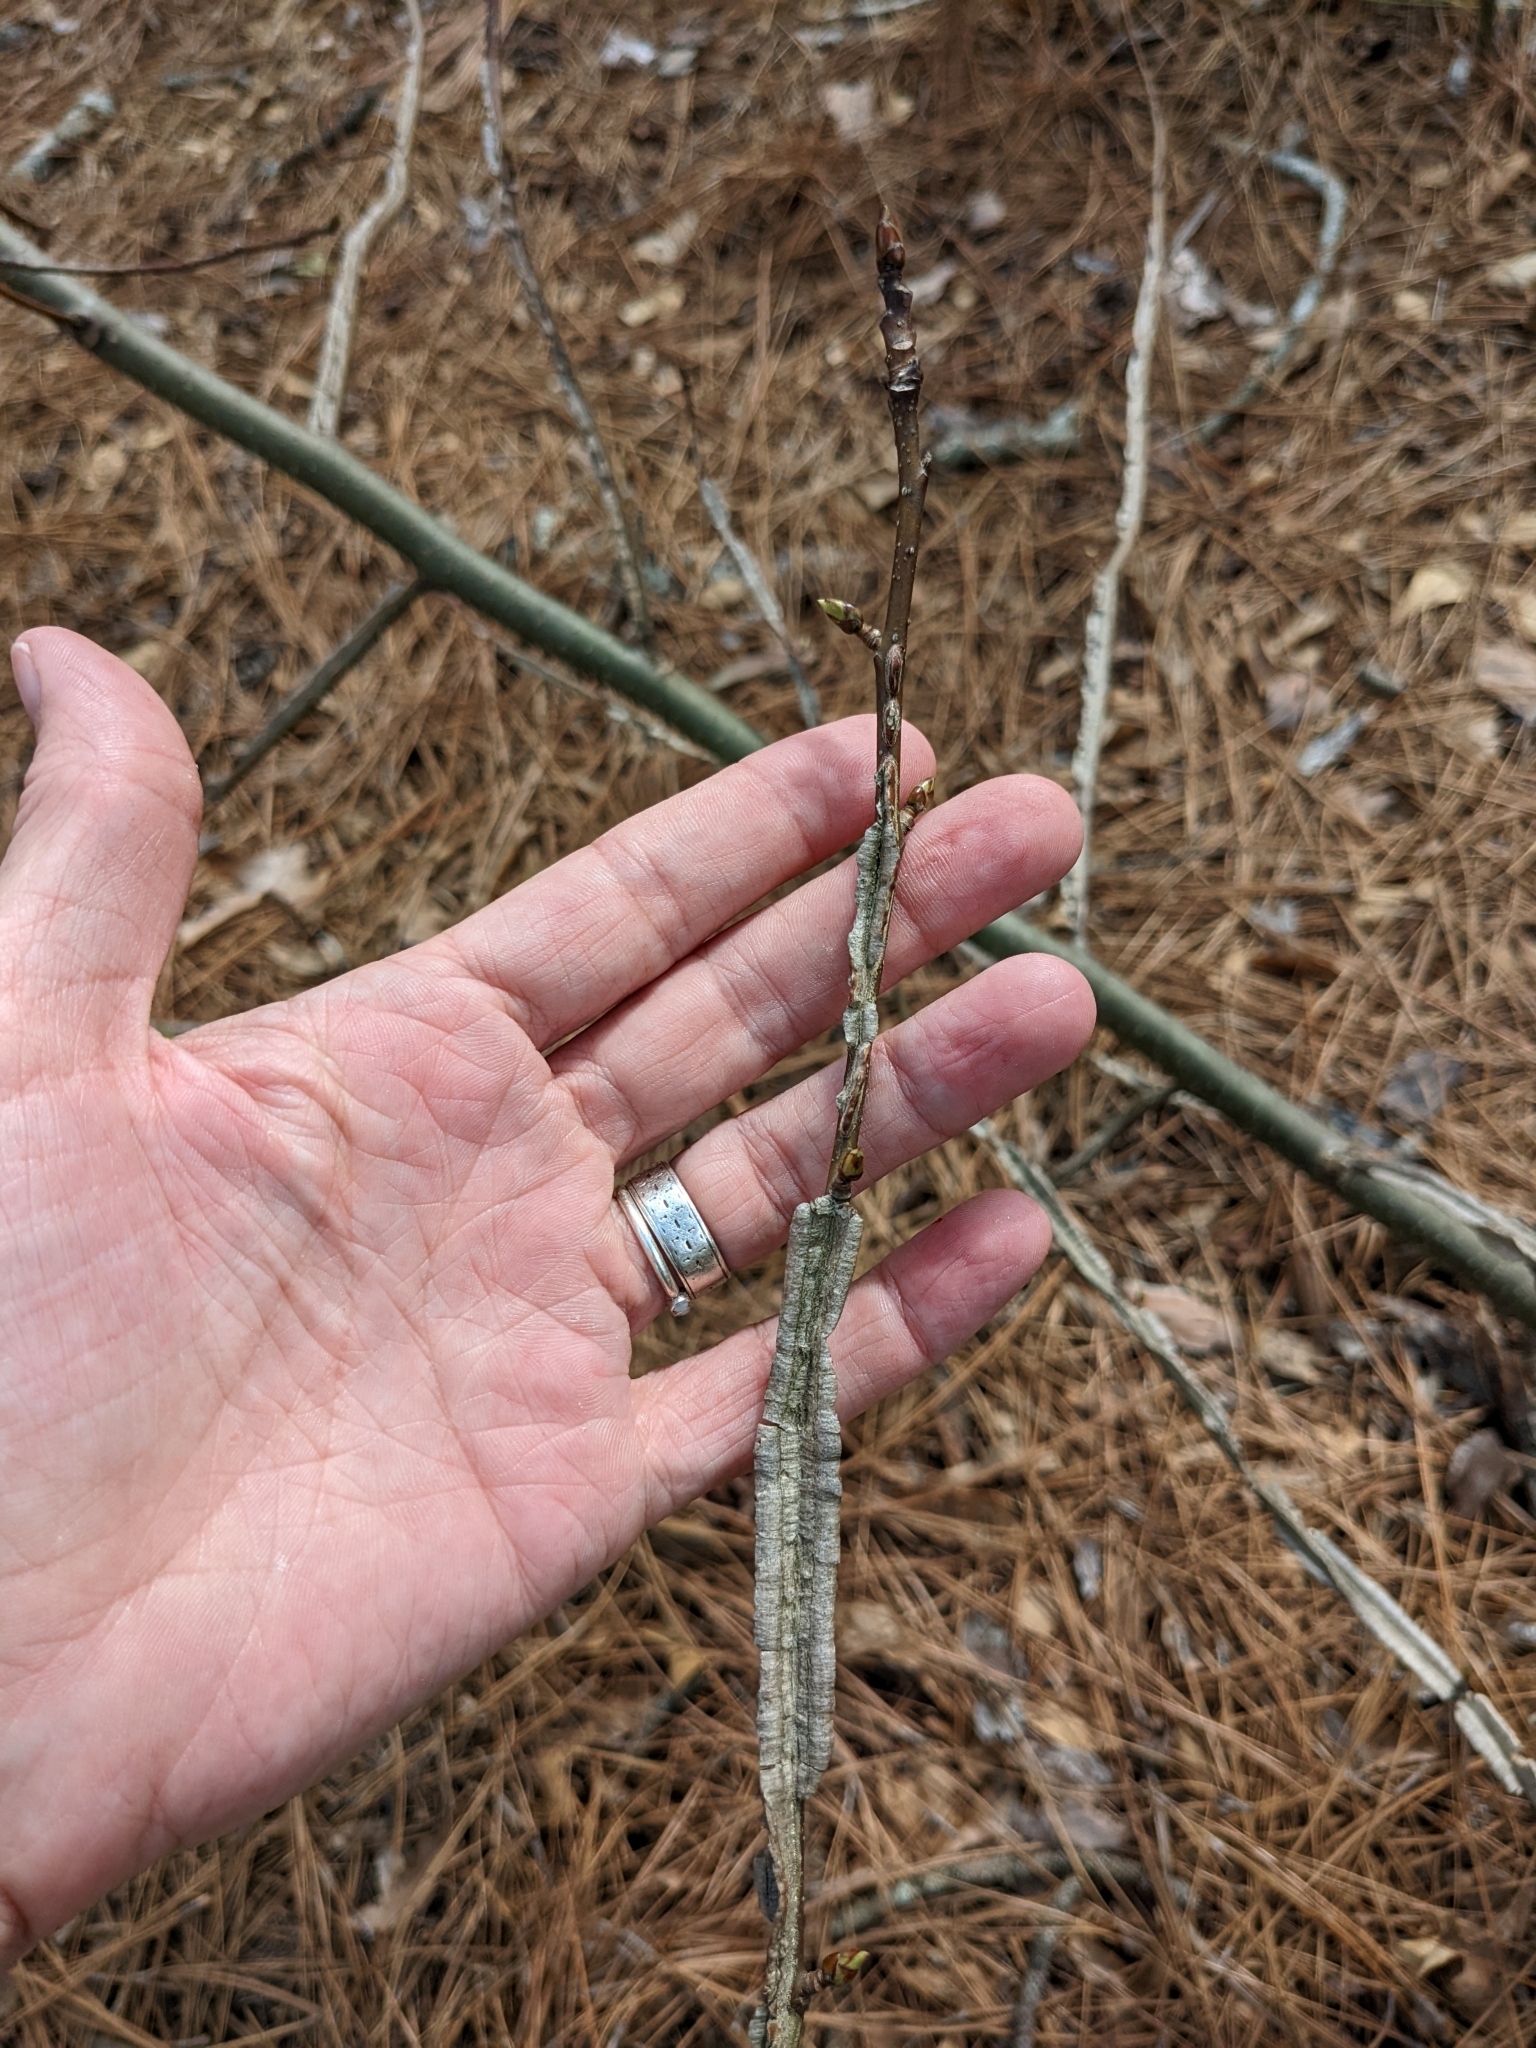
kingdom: Plantae
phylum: Tracheophyta
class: Magnoliopsida
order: Saxifragales
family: Altingiaceae
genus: Liquidambar
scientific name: Liquidambar styraciflua
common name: Sweet gum
